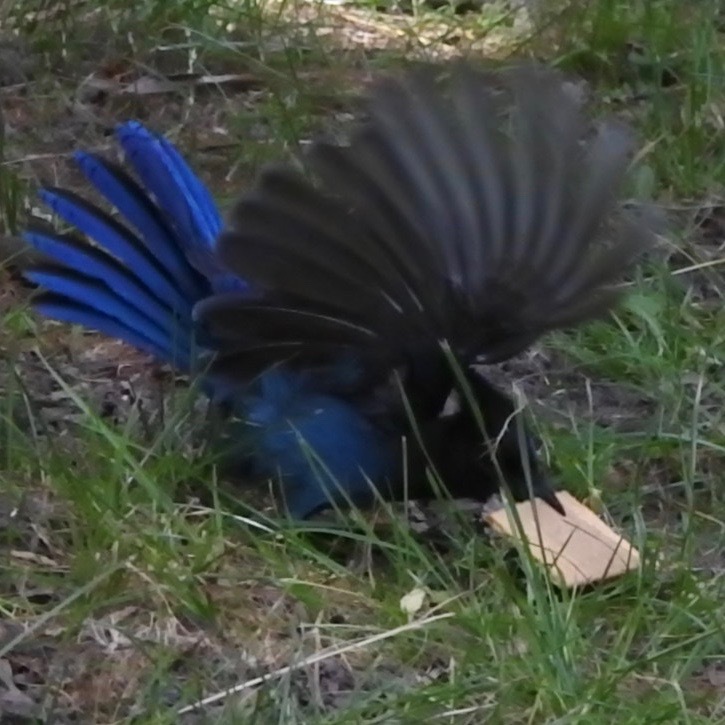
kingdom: Animalia
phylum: Chordata
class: Aves
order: Passeriformes
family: Corvidae
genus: Cyanocitta
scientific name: Cyanocitta stelleri
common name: Steller's jay
